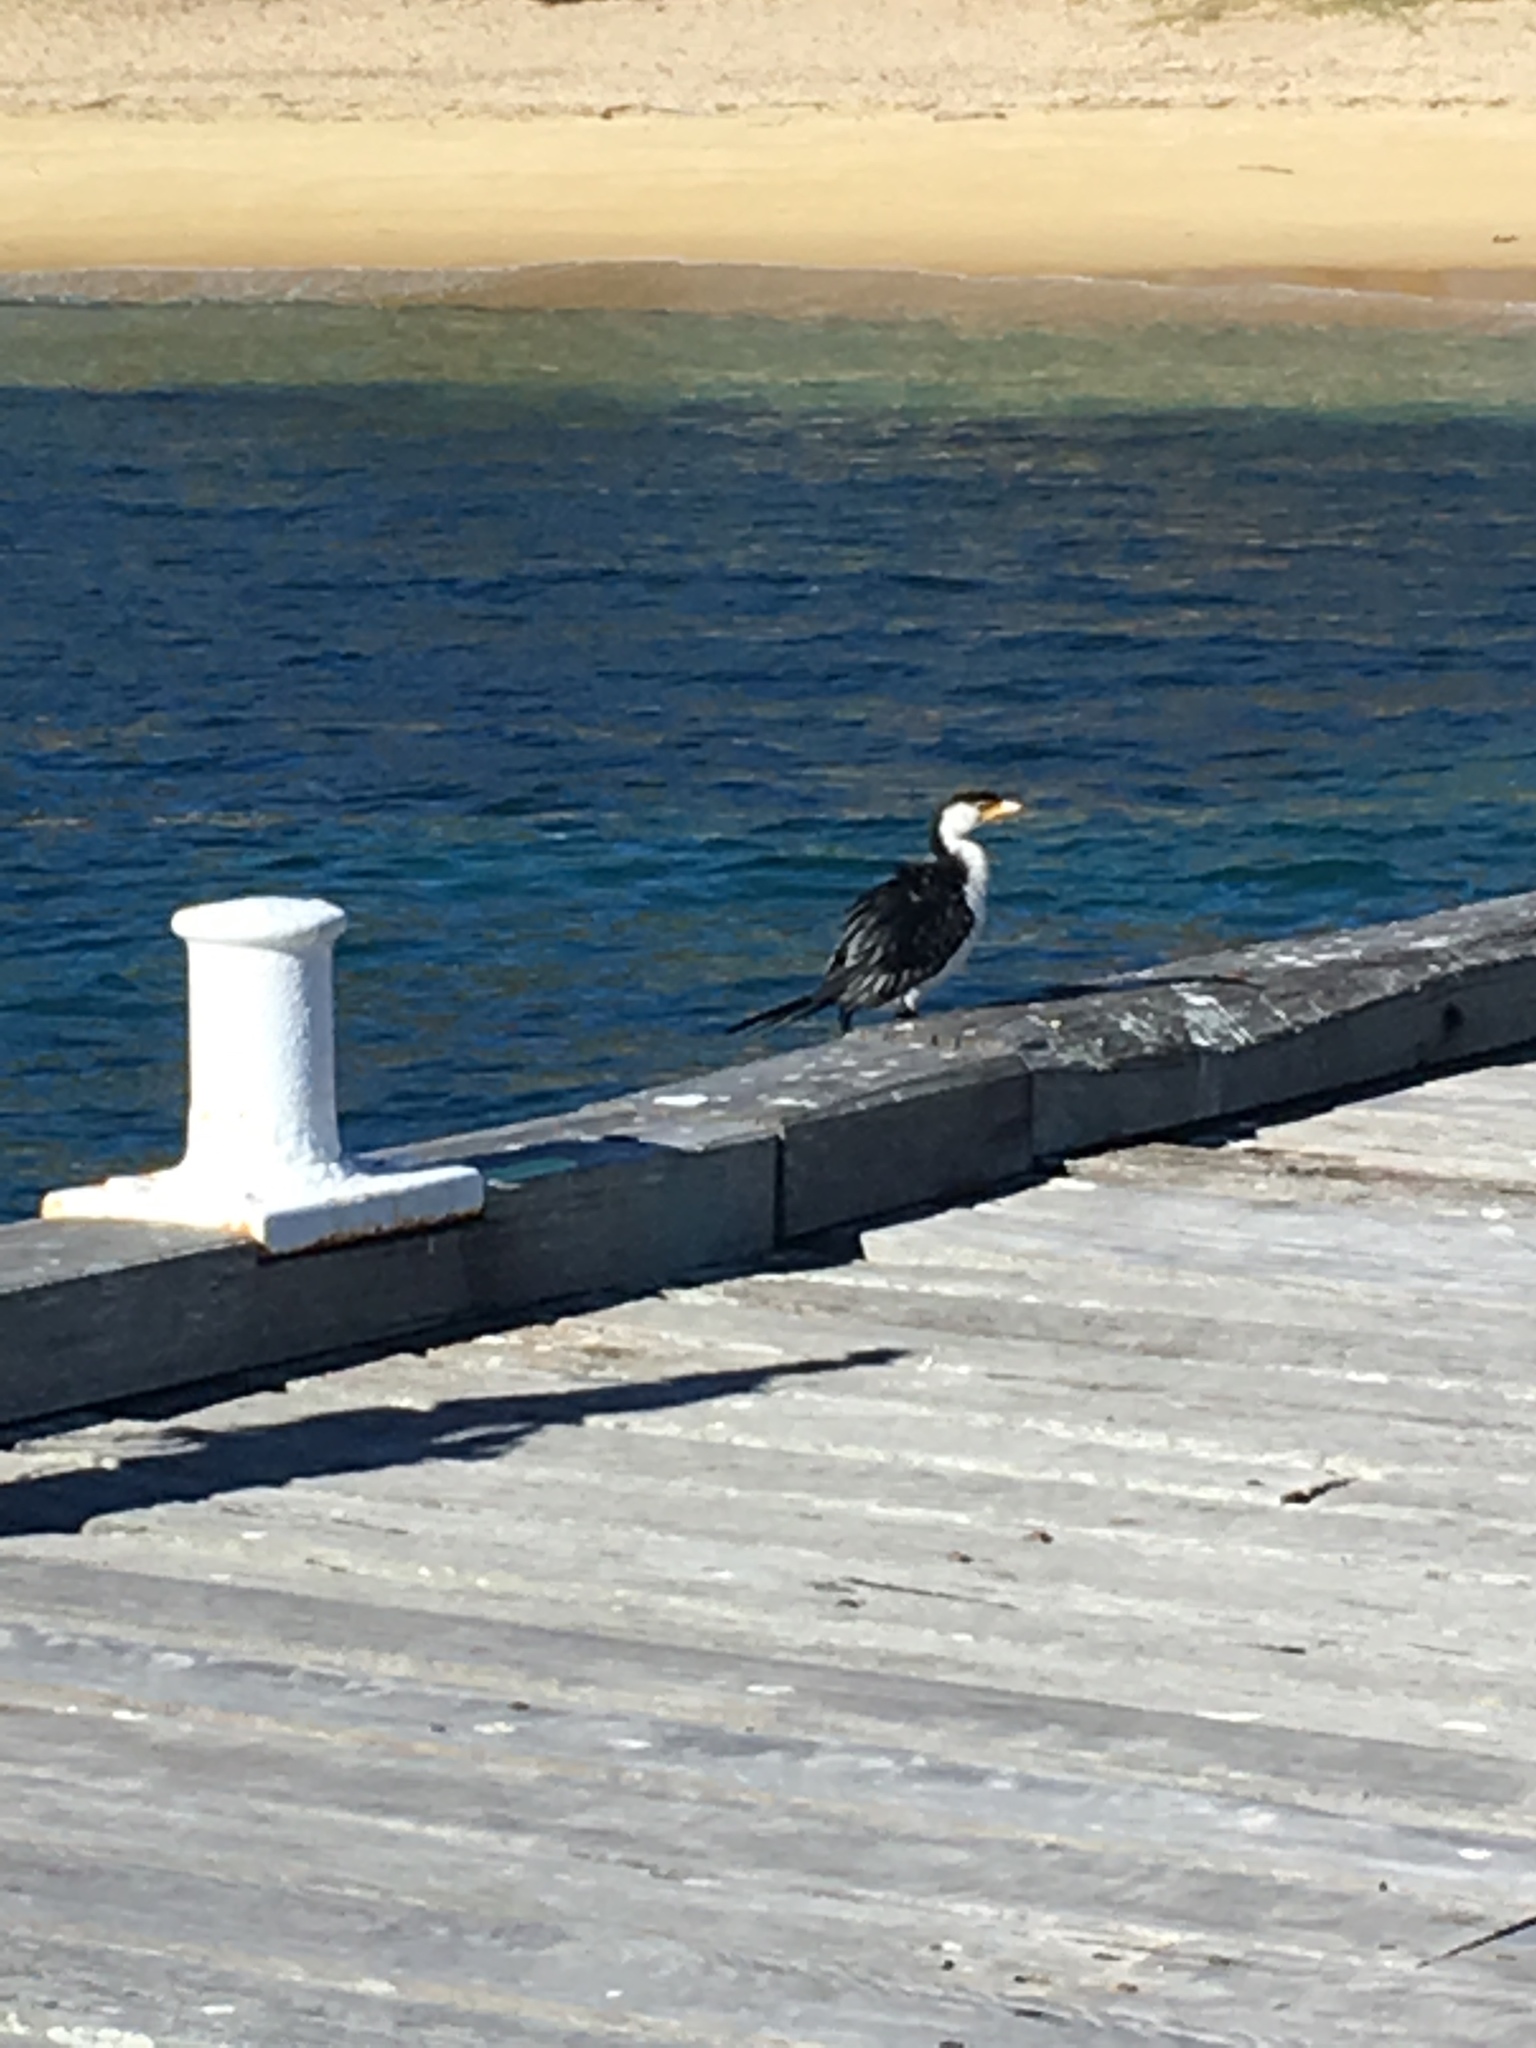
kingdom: Animalia
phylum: Chordata
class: Aves
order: Suliformes
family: Phalacrocoracidae
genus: Microcarbo
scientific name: Microcarbo melanoleucos
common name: Little pied cormorant
